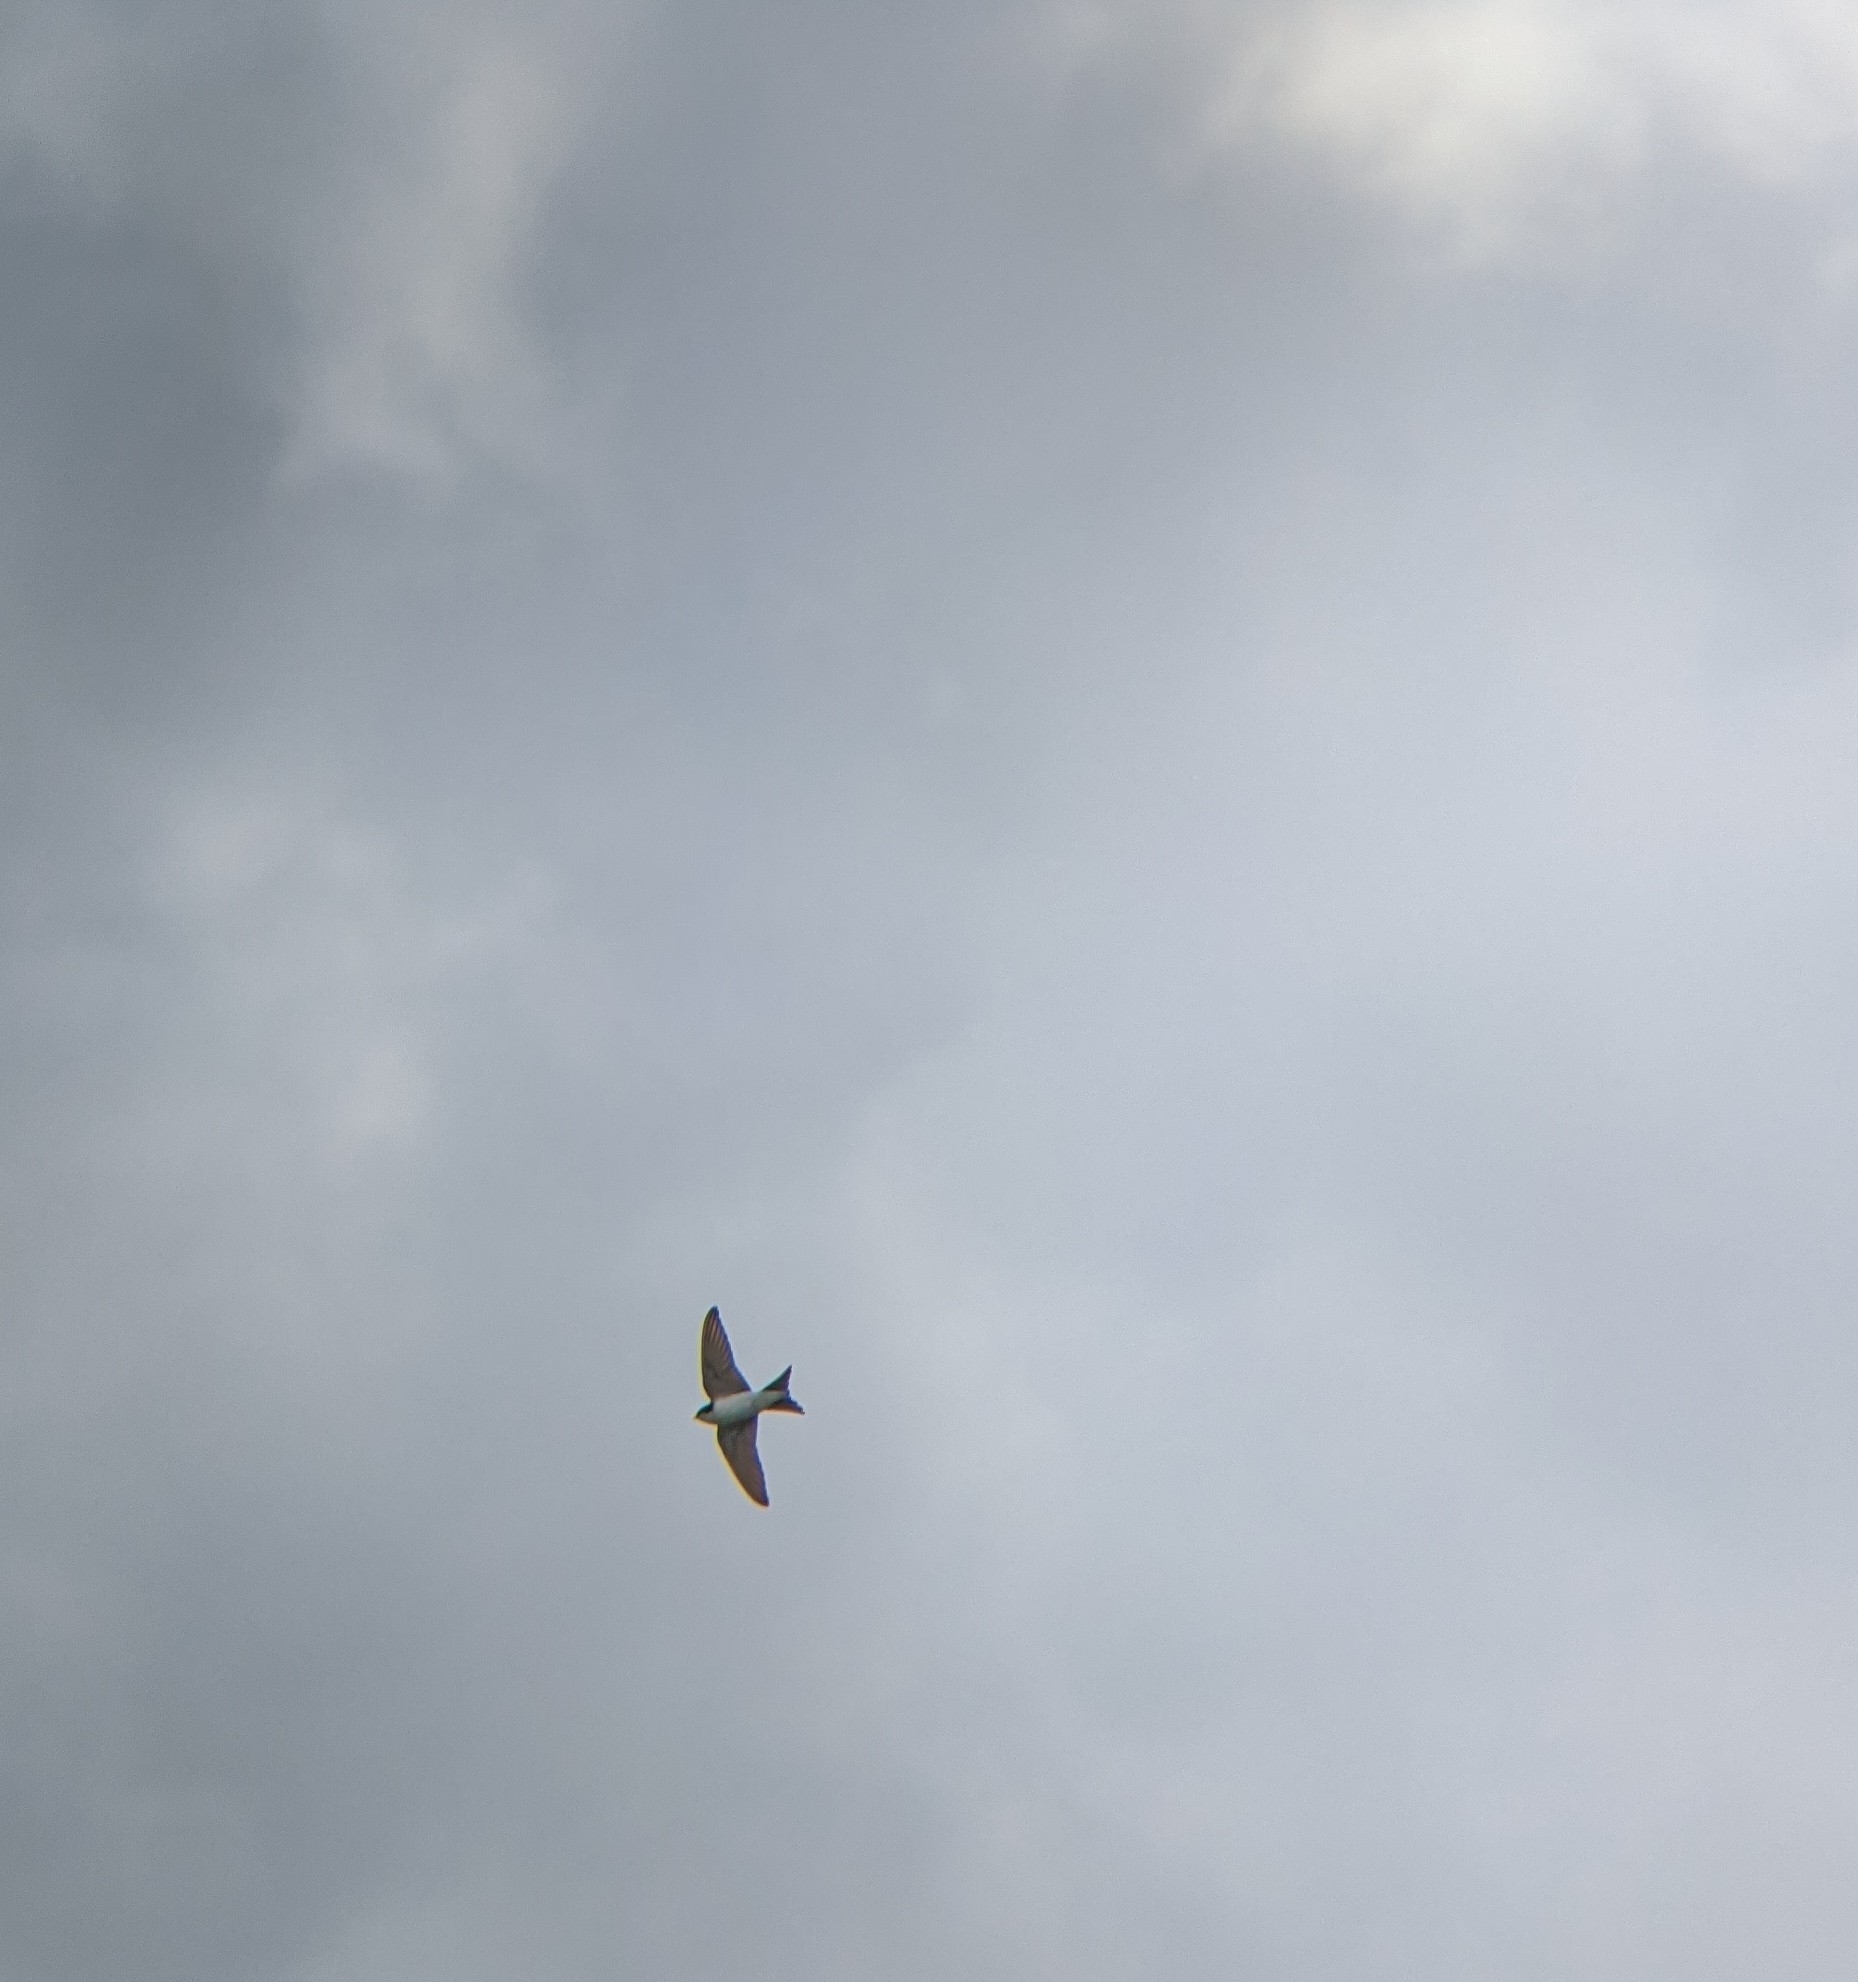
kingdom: Animalia
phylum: Chordata
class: Aves
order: Passeriformes
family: Hirundinidae
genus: Delichon
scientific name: Delichon urbicum
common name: Common house martin
